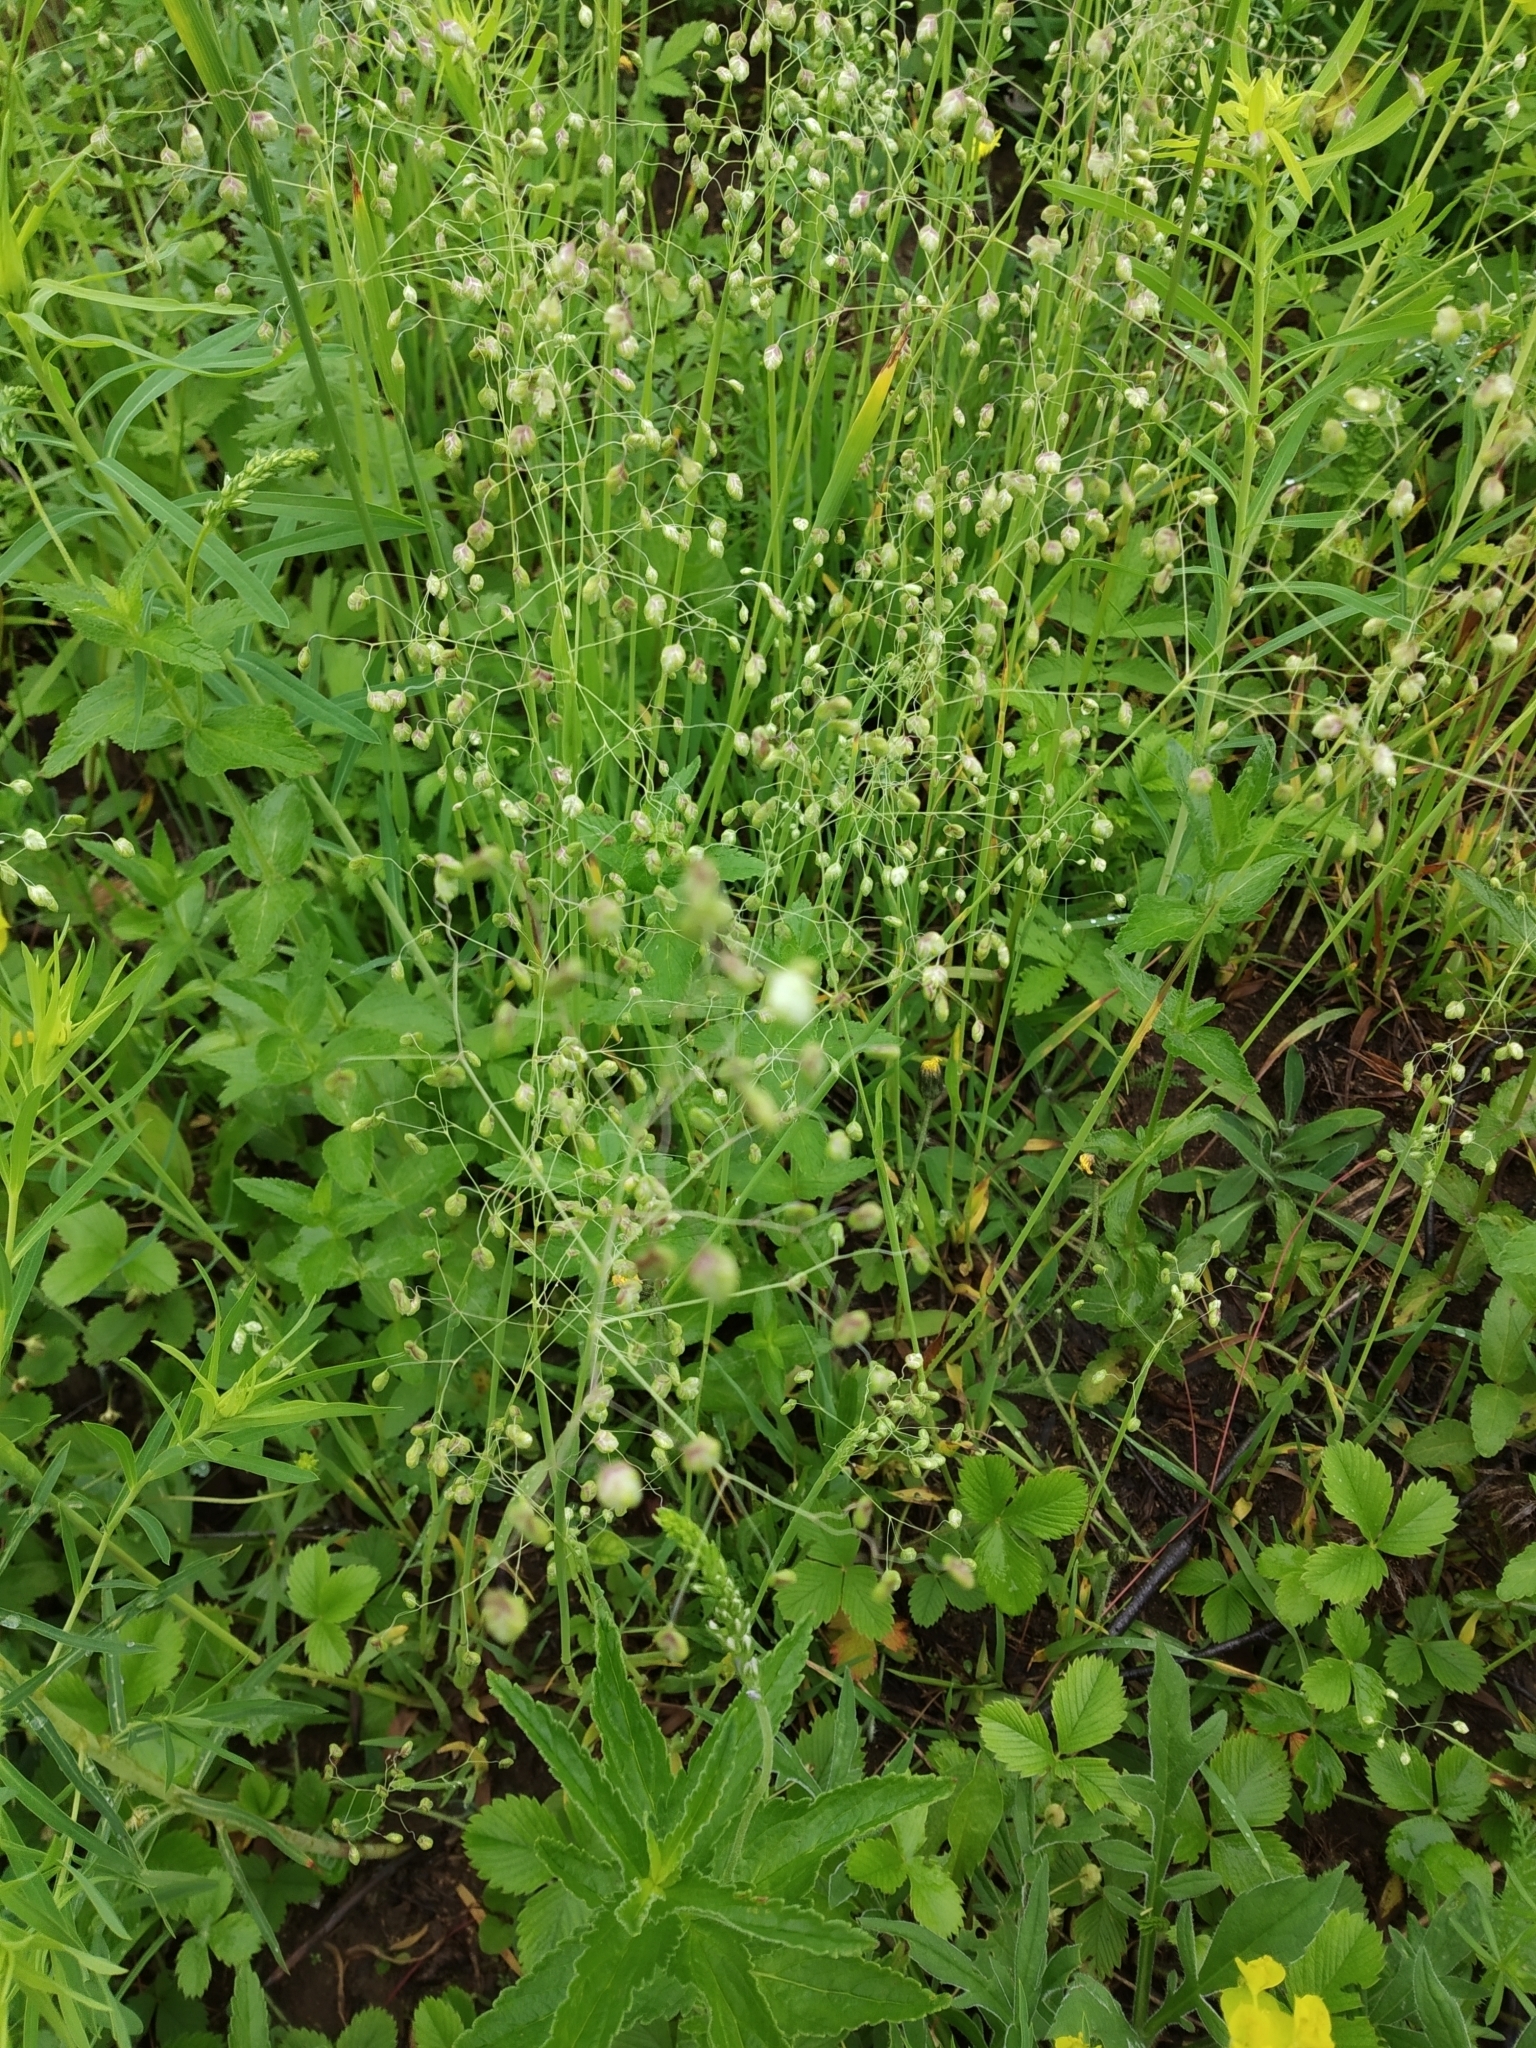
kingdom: Plantae
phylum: Tracheophyta
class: Liliopsida
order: Poales
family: Poaceae
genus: Briza
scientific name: Briza media
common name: Quaking grass
